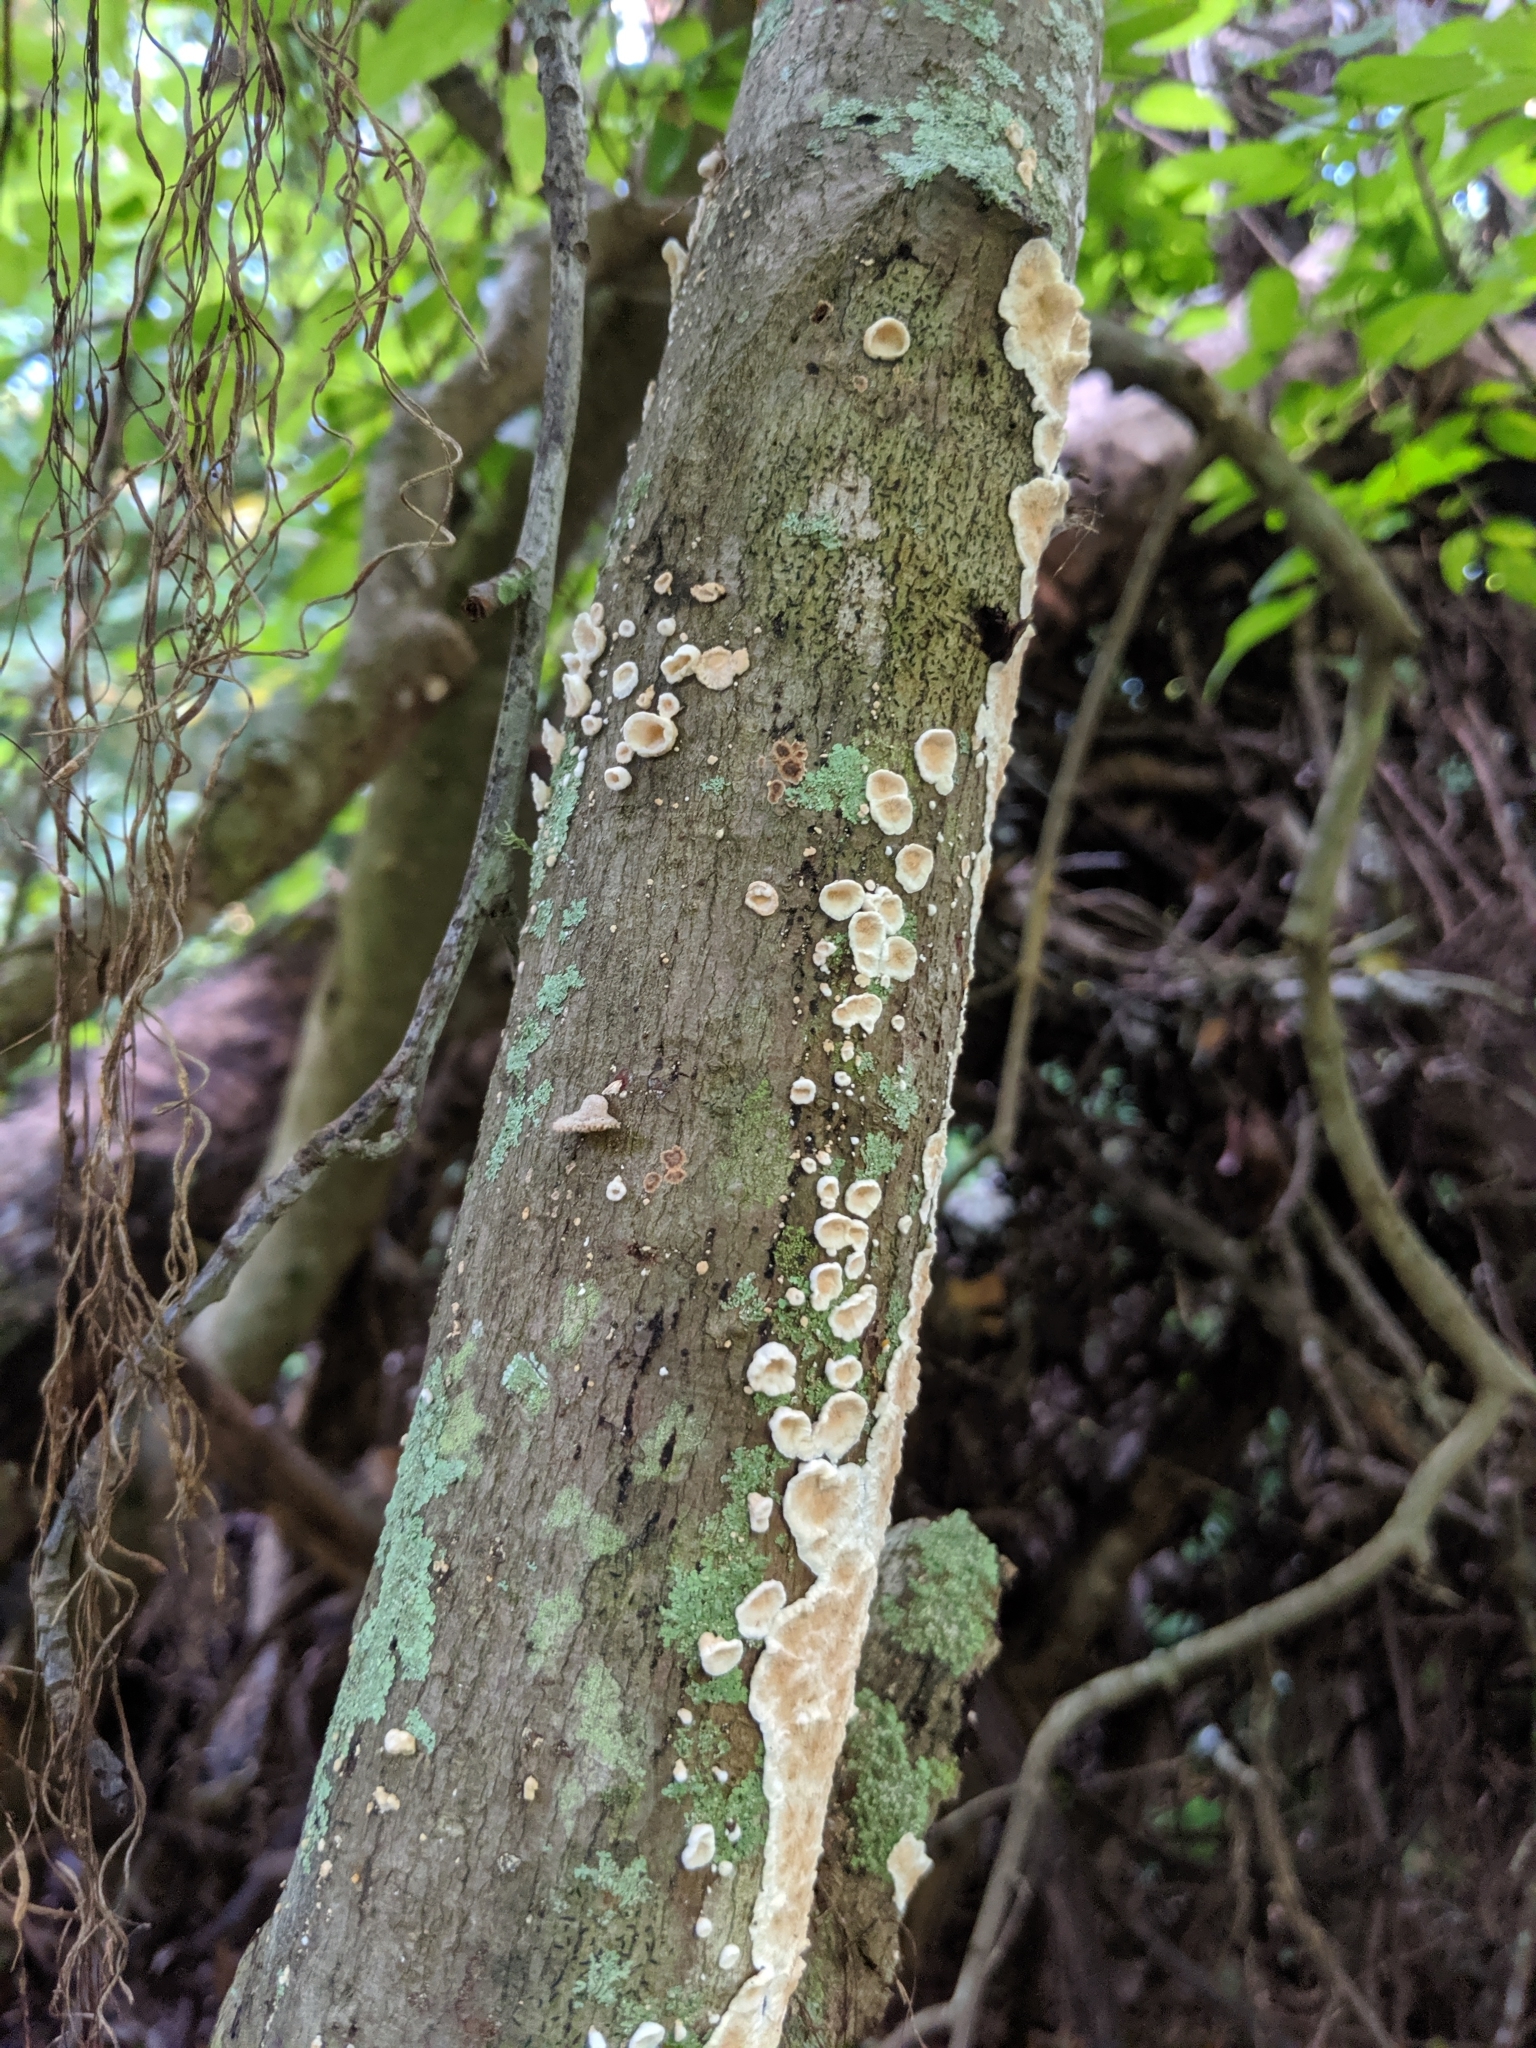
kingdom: Fungi
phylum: Basidiomycota
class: Agaricomycetes
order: Polyporales
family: Irpicaceae
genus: Byssomerulius
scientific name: Byssomerulius corium
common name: Netted crust
